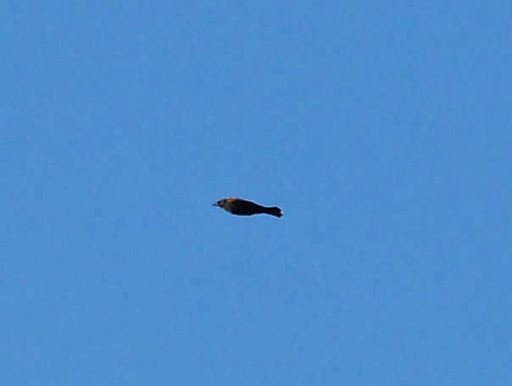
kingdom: Animalia
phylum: Chordata
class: Aves
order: Passeriformes
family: Icteridae
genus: Molothrus
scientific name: Molothrus ater
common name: Brown-headed cowbird
